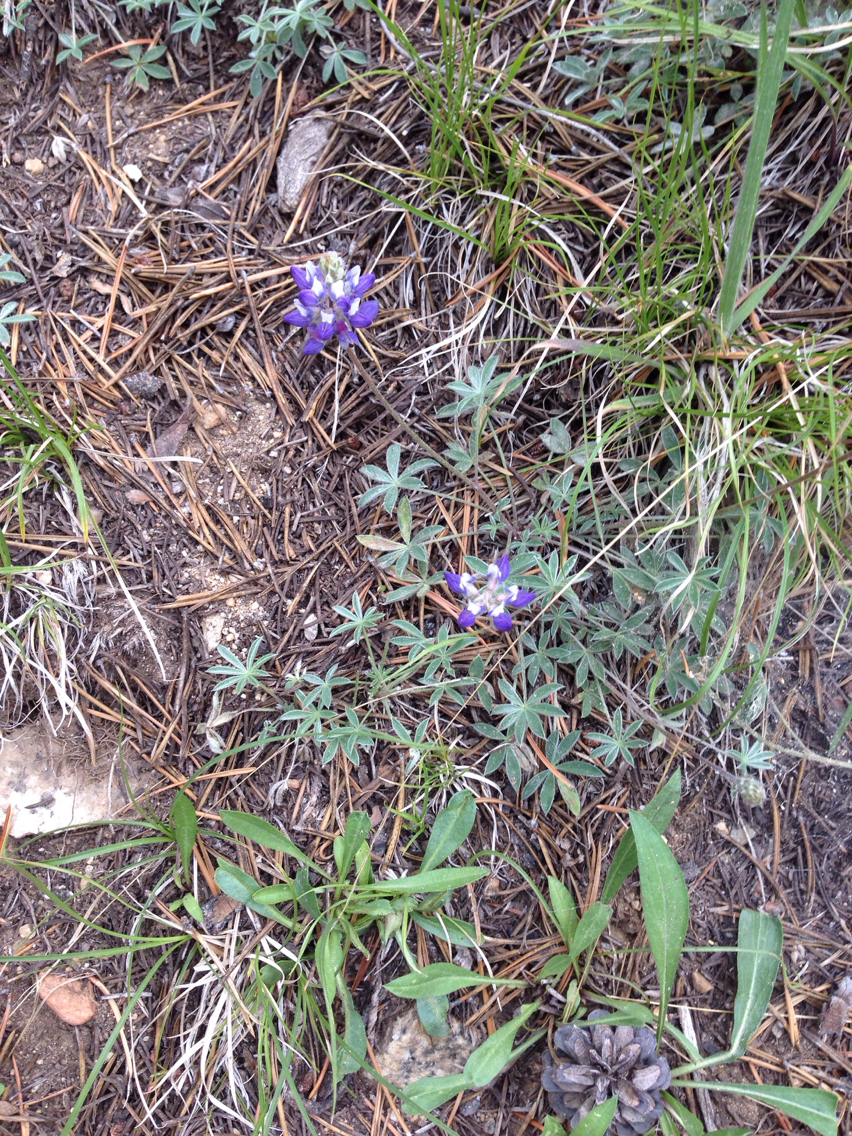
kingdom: Plantae
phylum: Tracheophyta
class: Magnoliopsida
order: Fabales
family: Fabaceae
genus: Lupinus
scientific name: Lupinus sellulus
